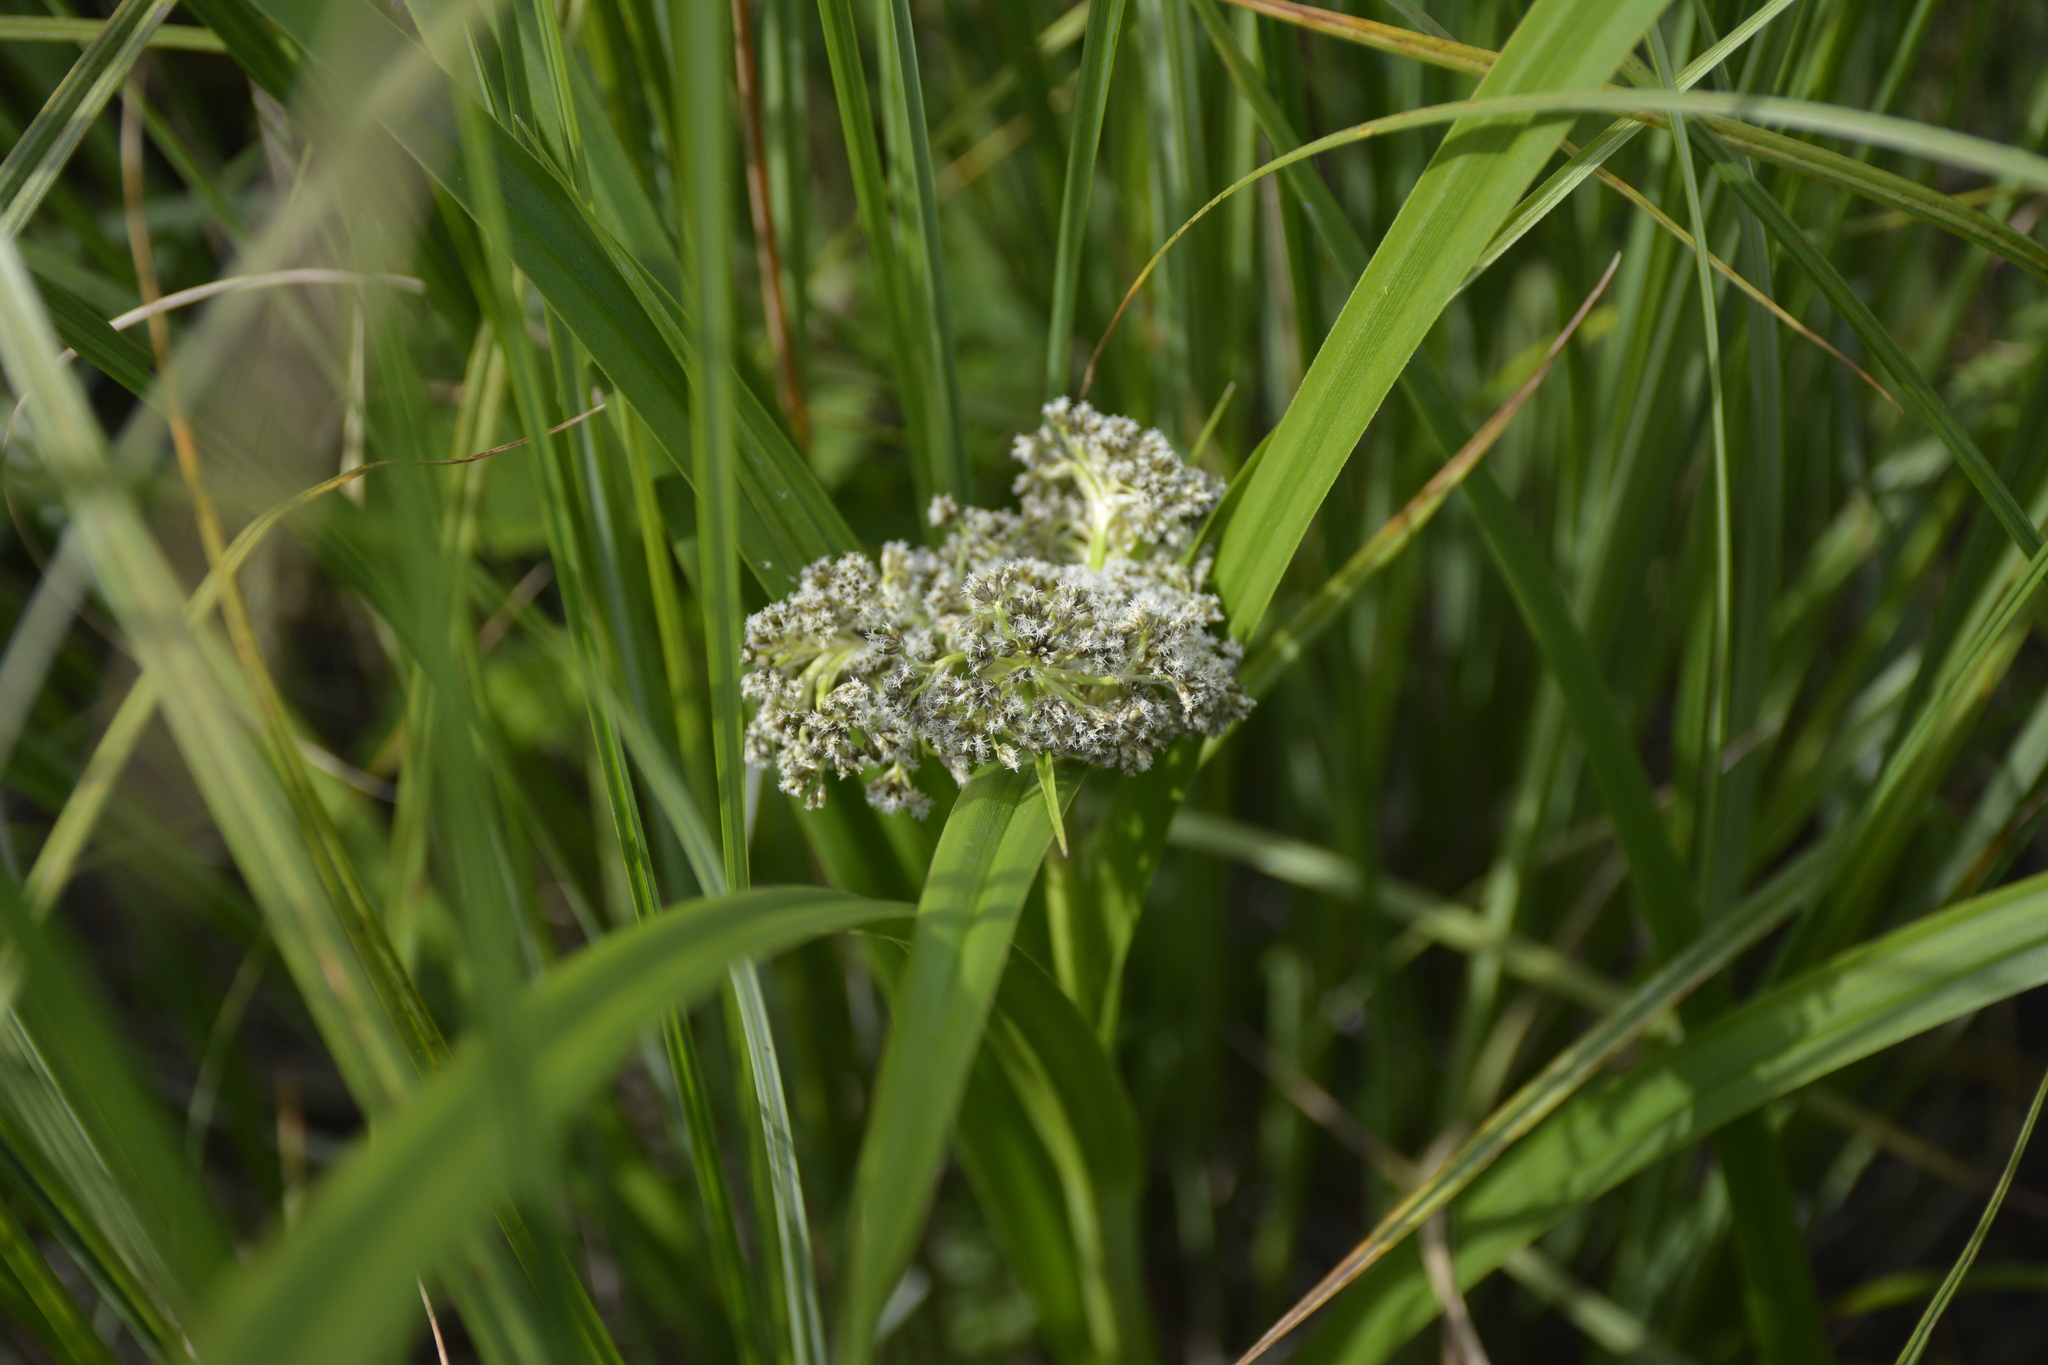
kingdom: Plantae
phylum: Tracheophyta
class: Liliopsida
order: Poales
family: Cyperaceae
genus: Scirpus
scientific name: Scirpus sylvaticus
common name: Wood club-rush
